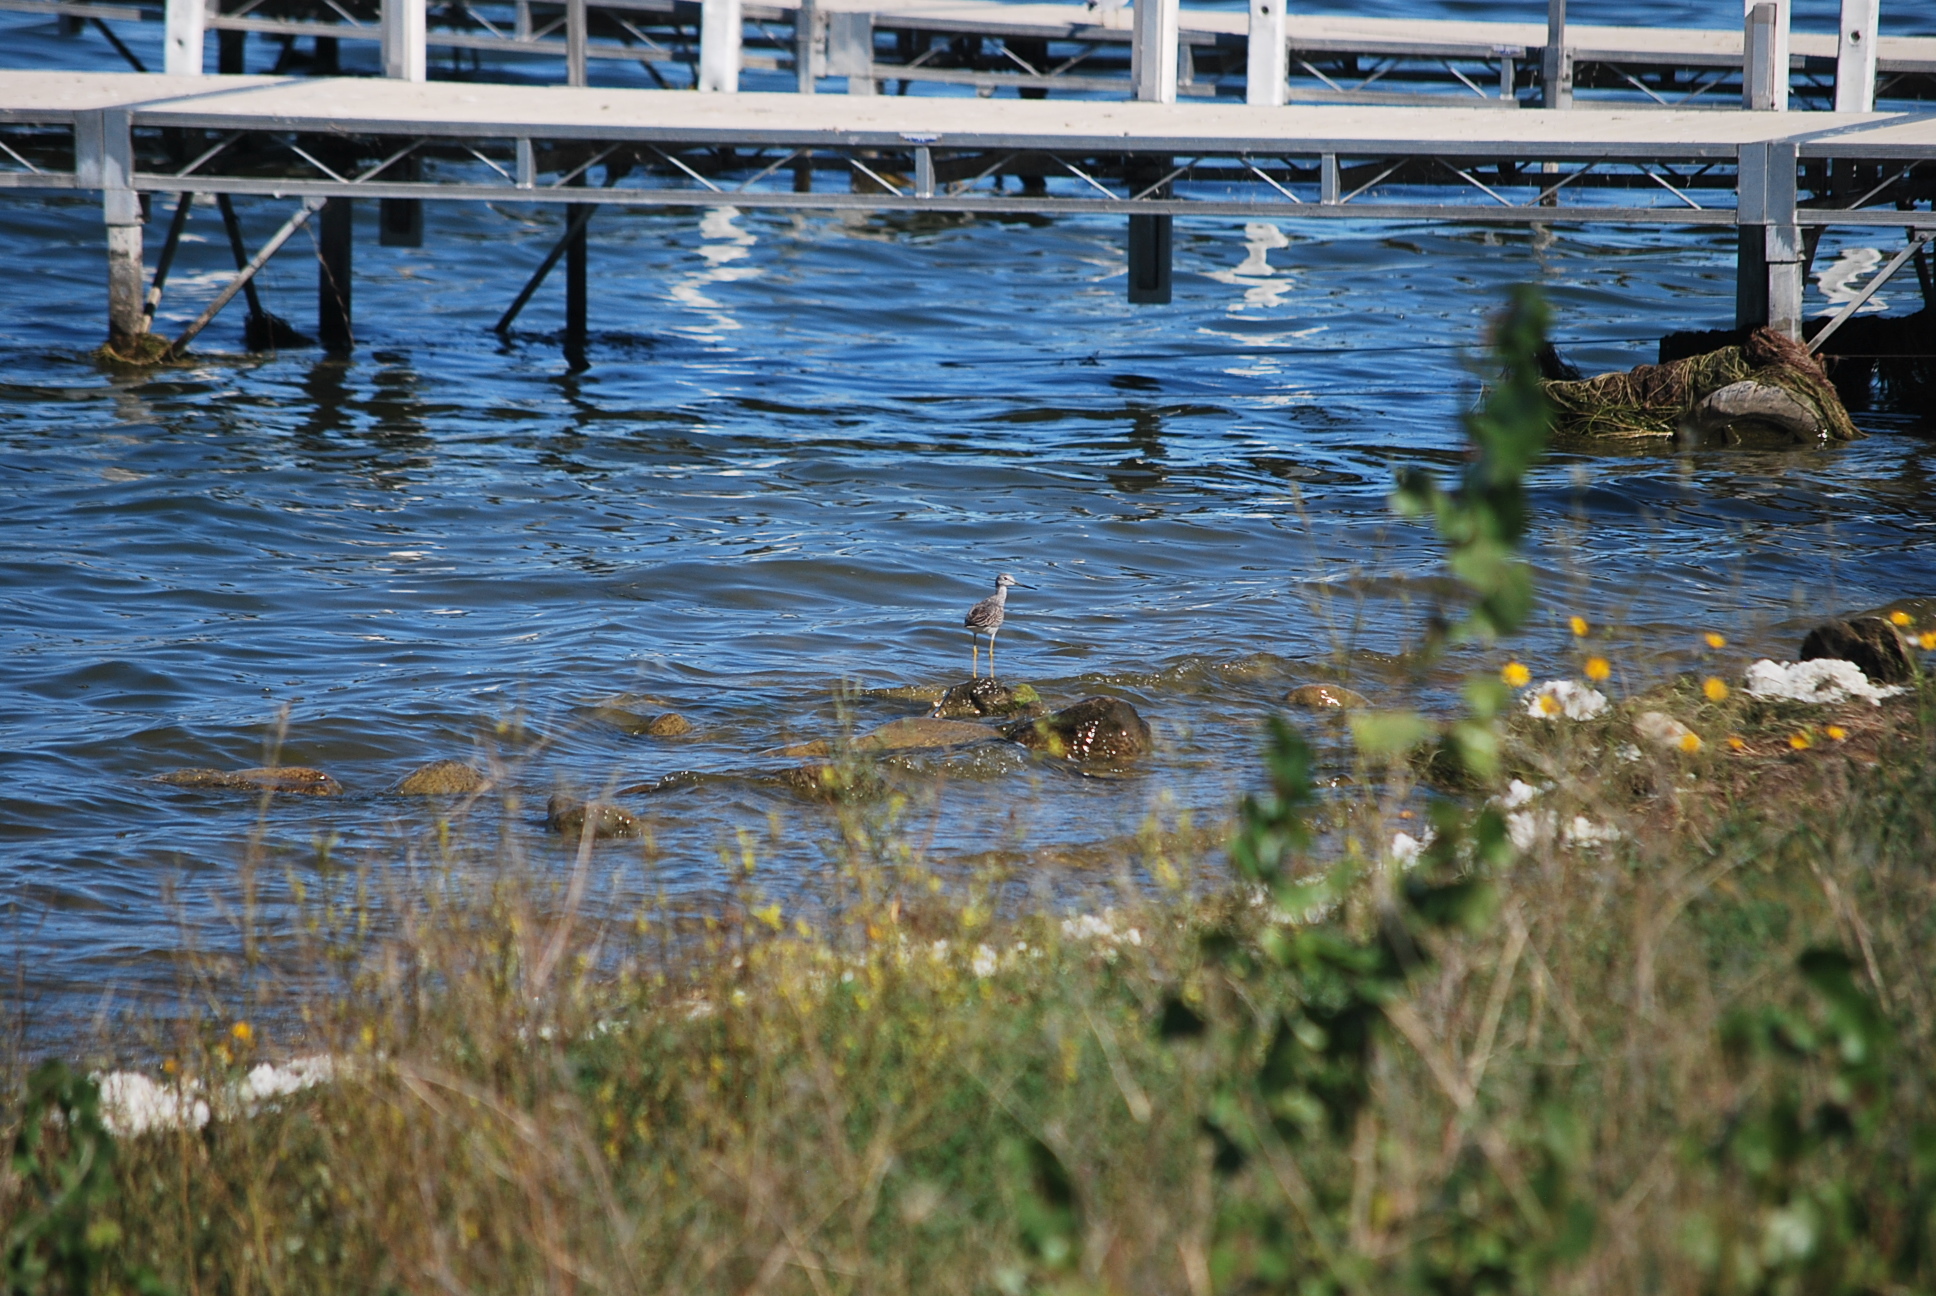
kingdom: Animalia
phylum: Chordata
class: Aves
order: Charadriiformes
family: Scolopacidae
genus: Tringa
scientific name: Tringa melanoleuca
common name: Greater yellowlegs
